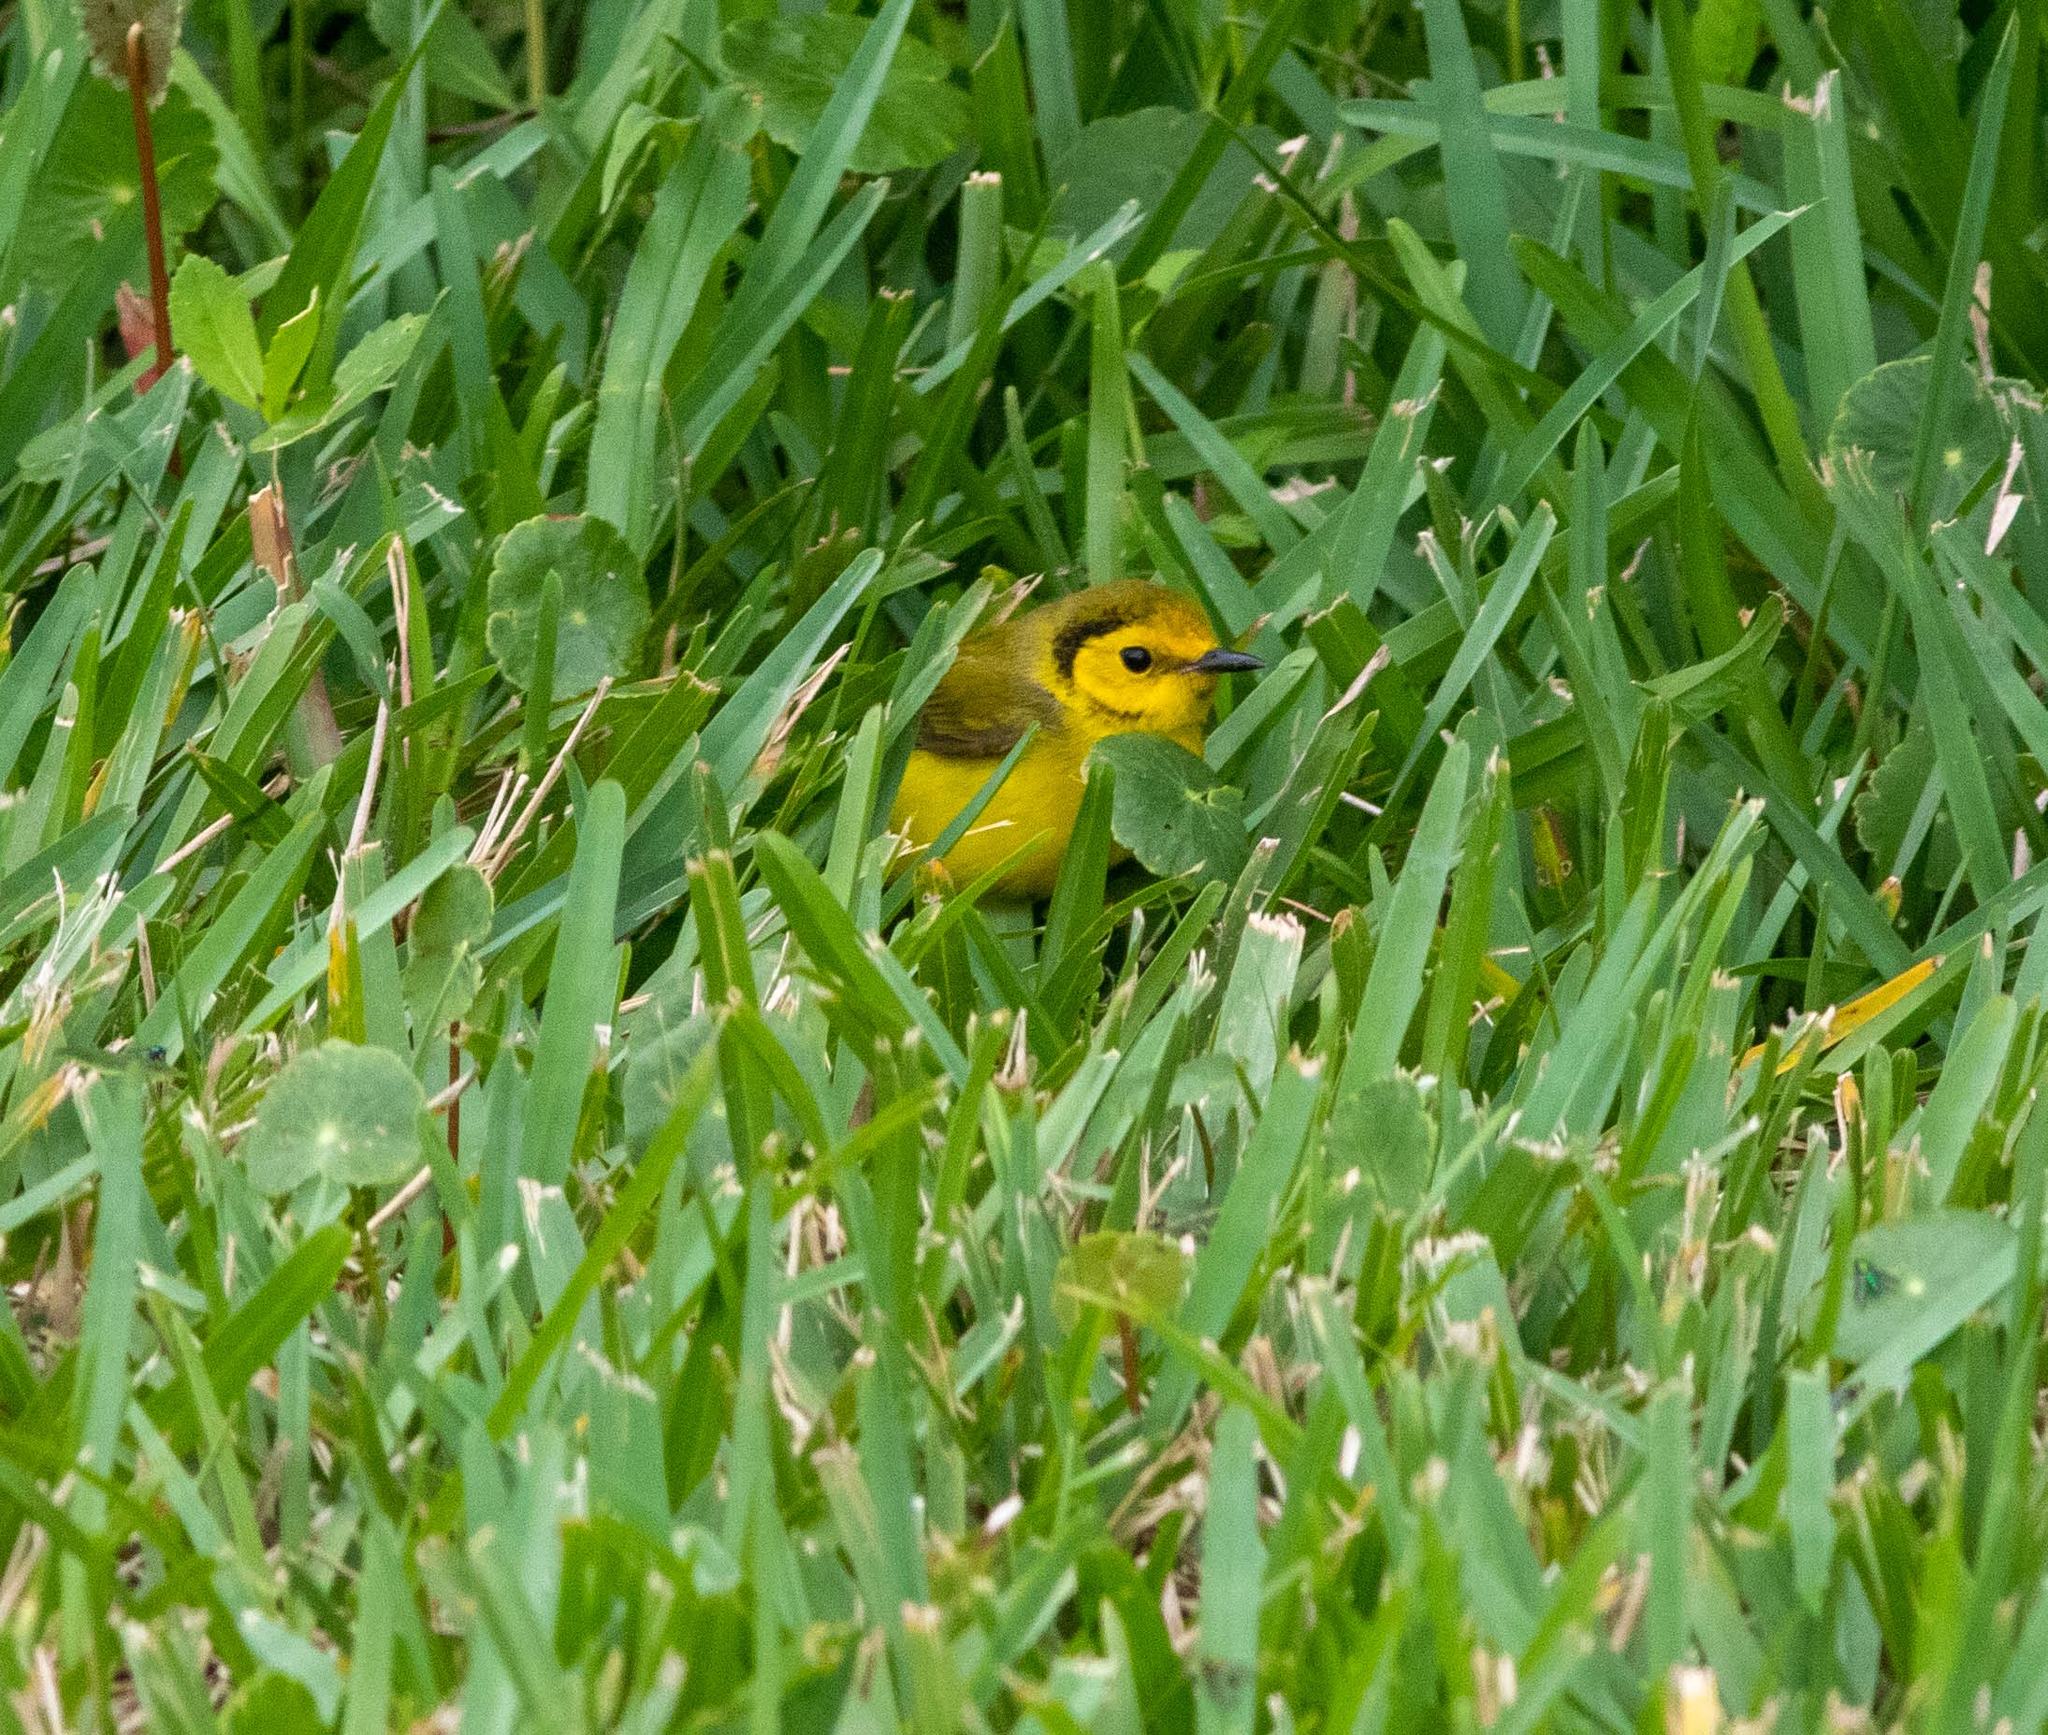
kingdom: Animalia
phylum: Chordata
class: Aves
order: Passeriformes
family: Parulidae
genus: Setophaga
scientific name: Setophaga citrina
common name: Hooded warbler
